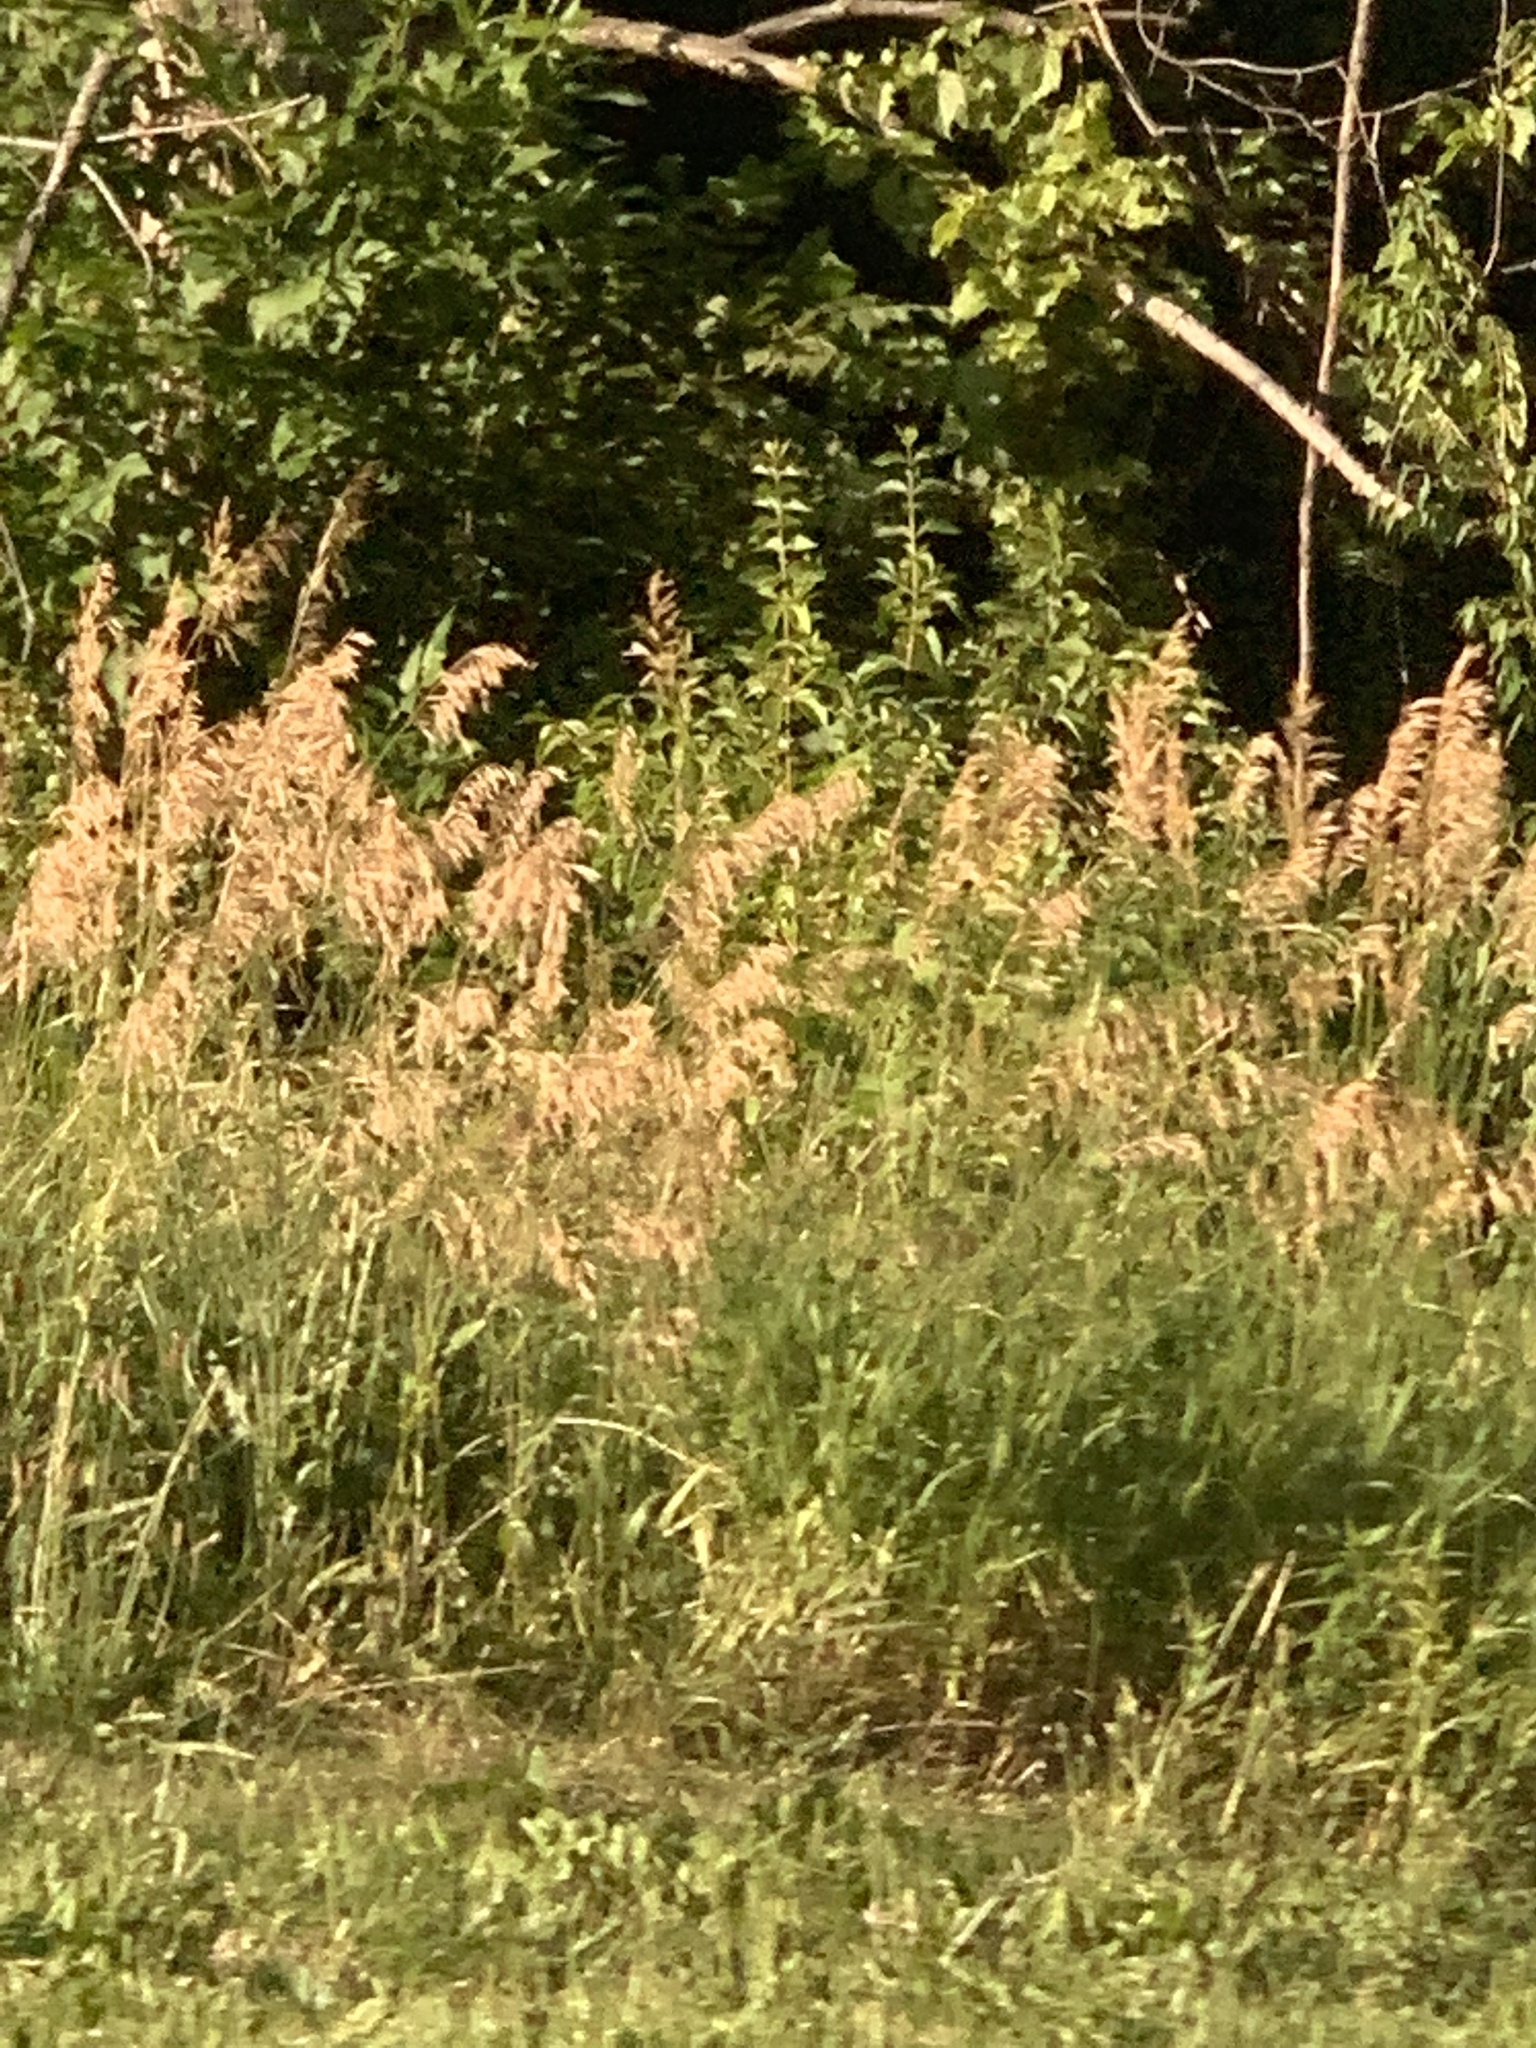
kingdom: Plantae
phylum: Tracheophyta
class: Liliopsida
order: Poales
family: Poaceae
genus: Phragmites
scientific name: Phragmites australis
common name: Common reed
